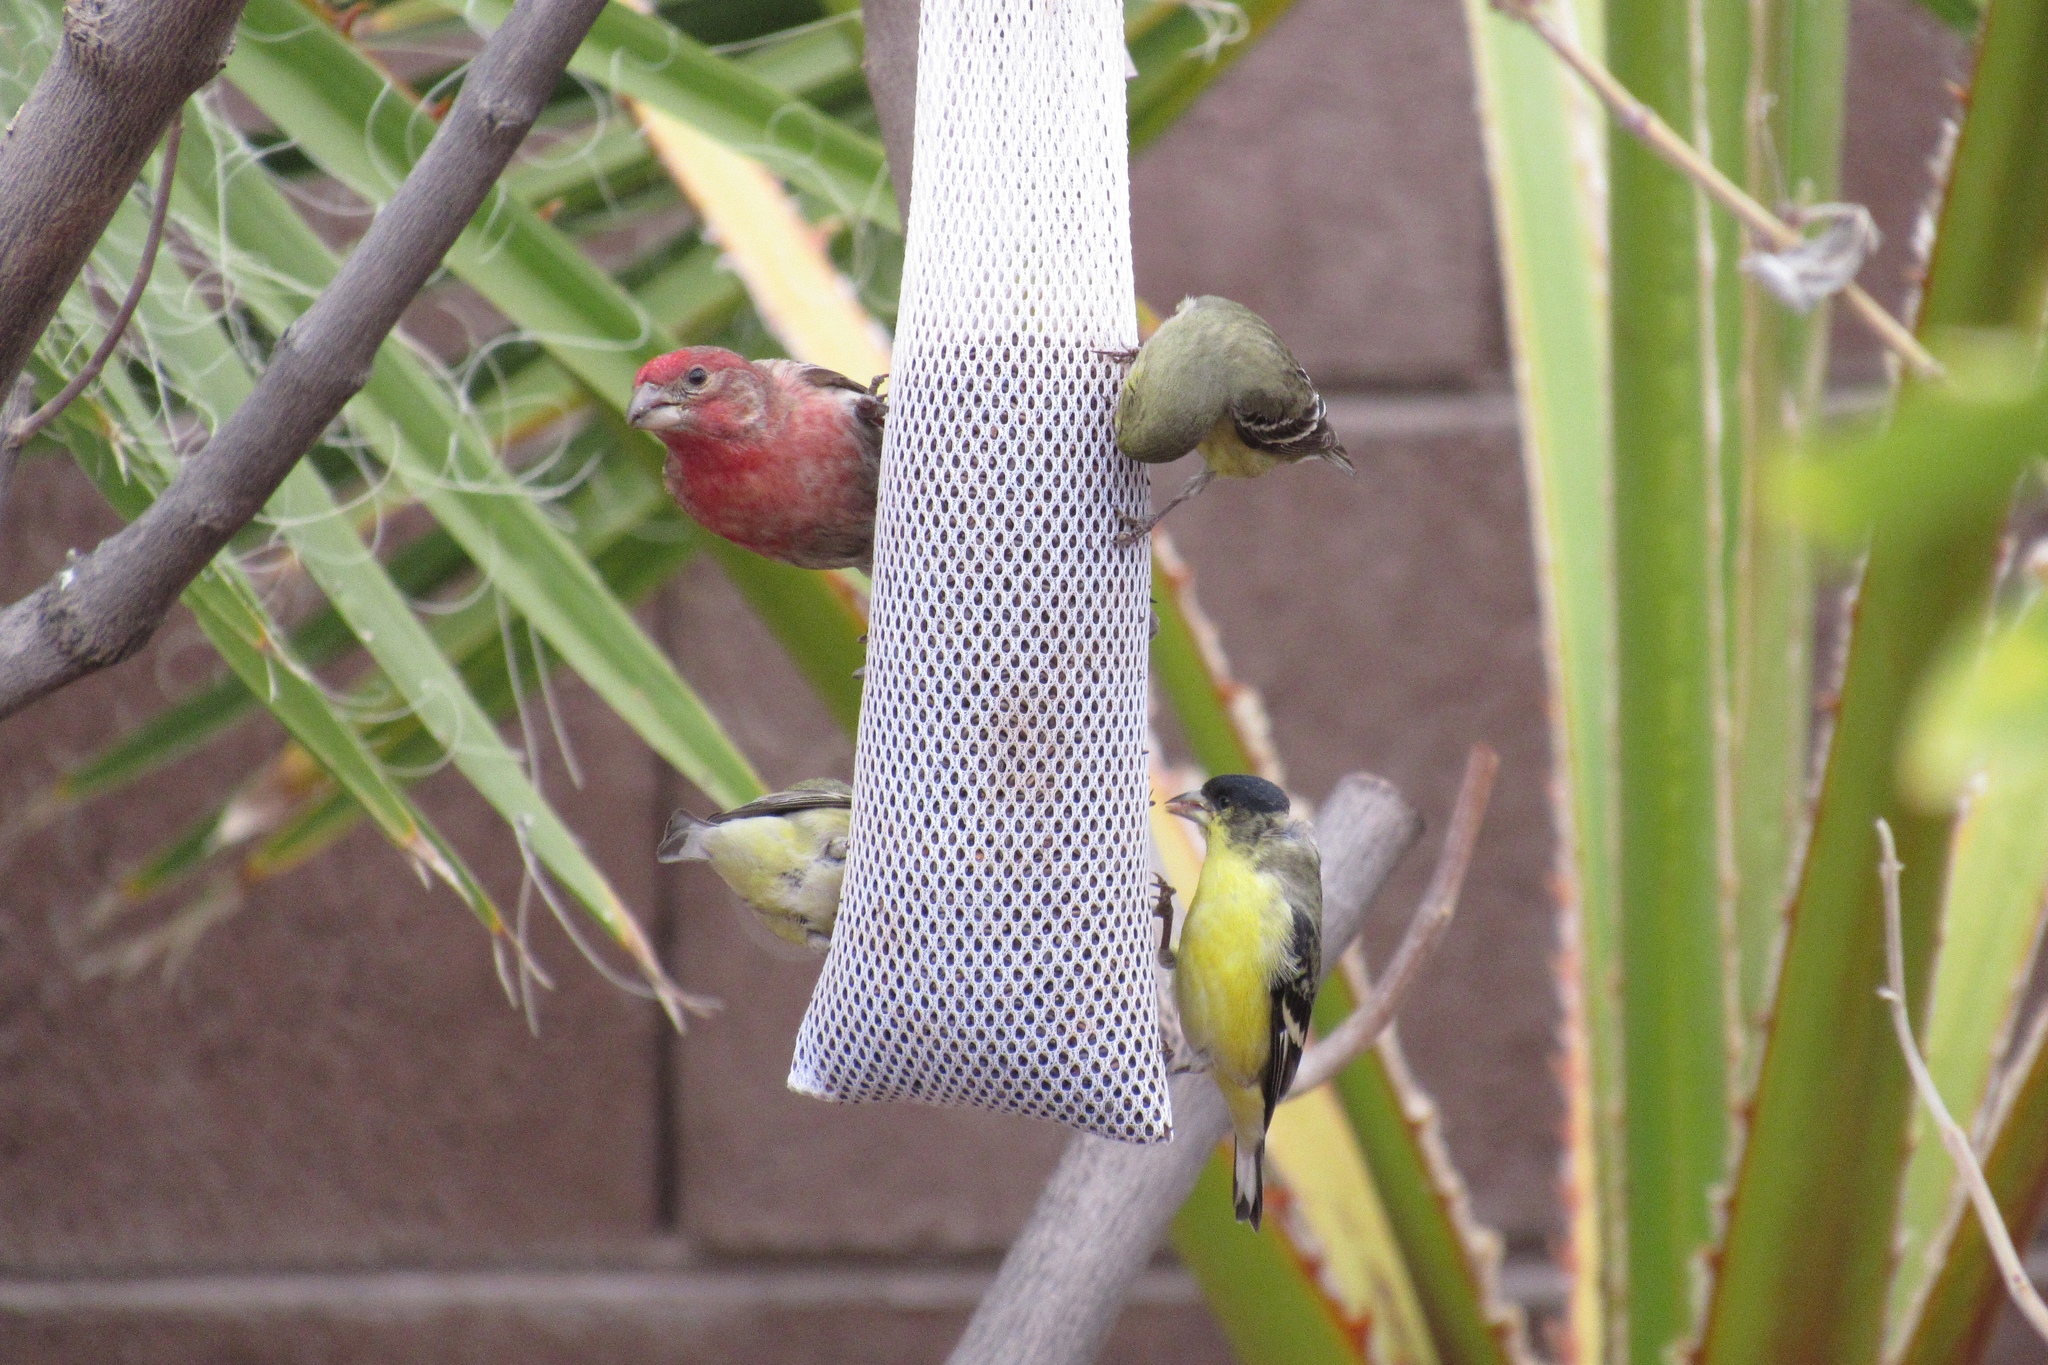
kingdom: Animalia
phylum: Chordata
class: Aves
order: Passeriformes
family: Fringillidae
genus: Spinus
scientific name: Spinus psaltria
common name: Lesser goldfinch
